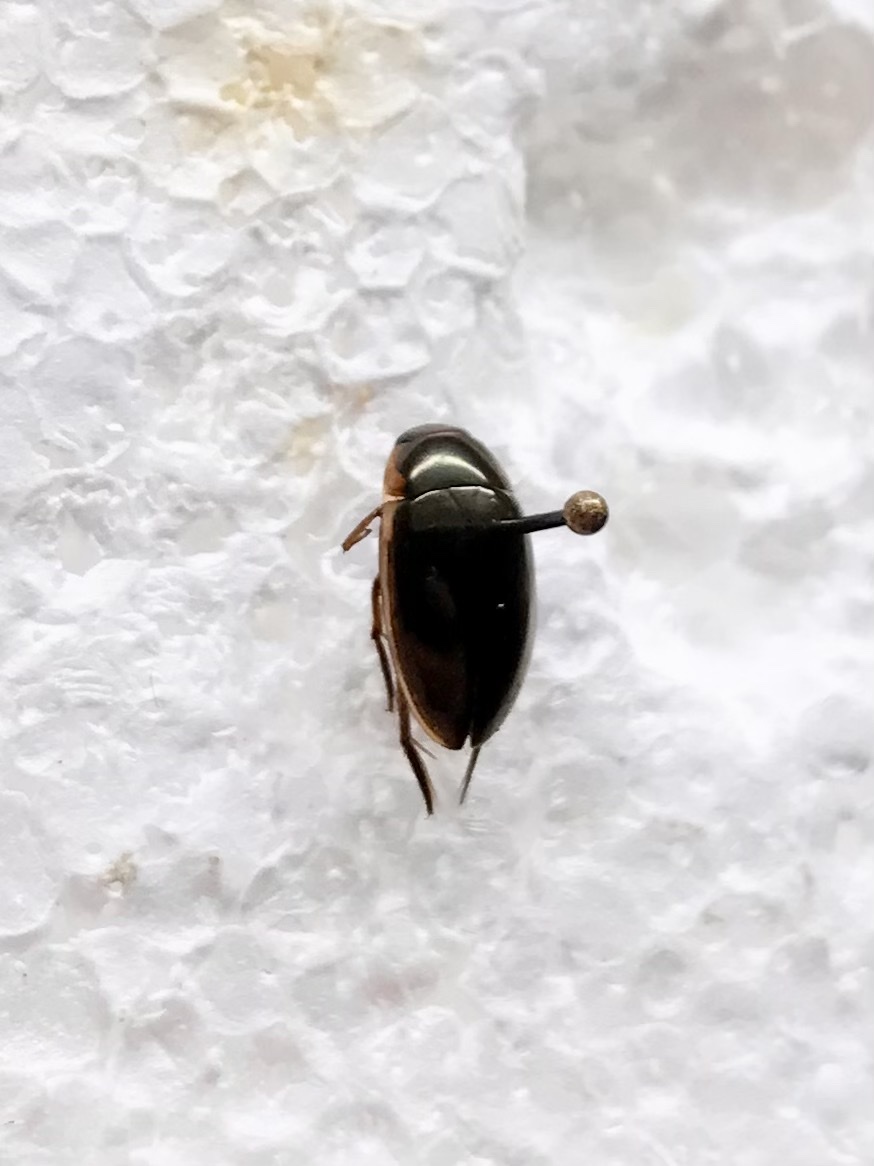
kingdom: Animalia
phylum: Arthropoda
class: Insecta
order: Coleoptera
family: Hydrophilidae
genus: Tropisternus
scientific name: Tropisternus lateralis
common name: Lateral-banded water scavenger beetle
